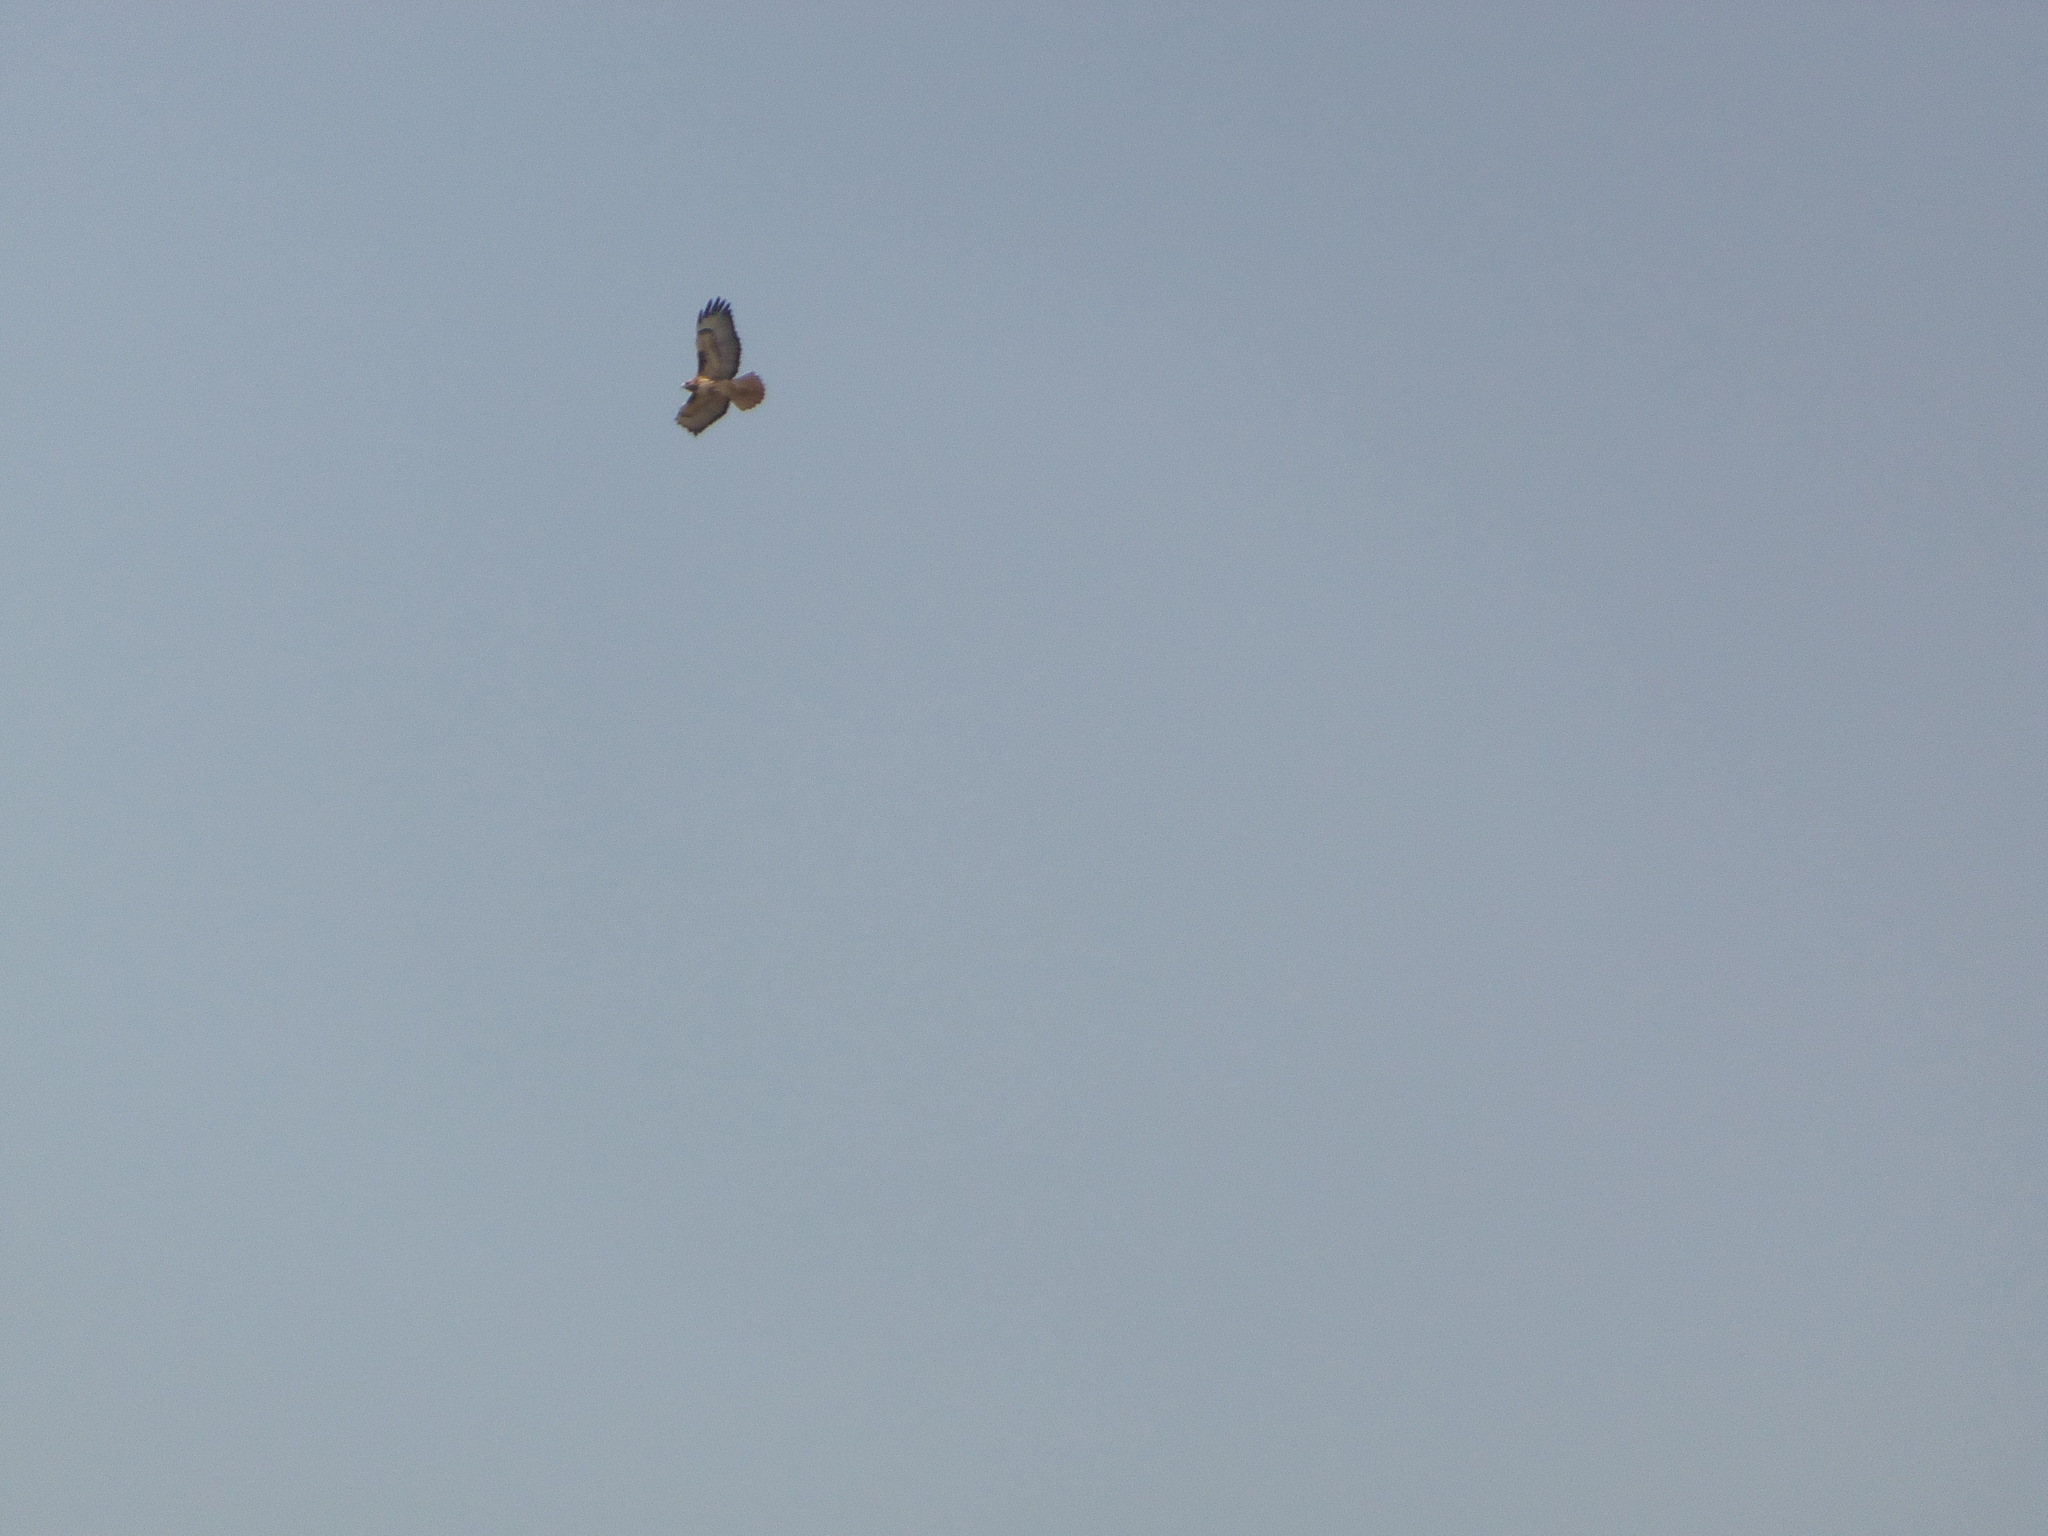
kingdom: Animalia
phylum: Chordata
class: Aves
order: Accipitriformes
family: Accipitridae
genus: Buteo
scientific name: Buteo jamaicensis
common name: Red-tailed hawk
